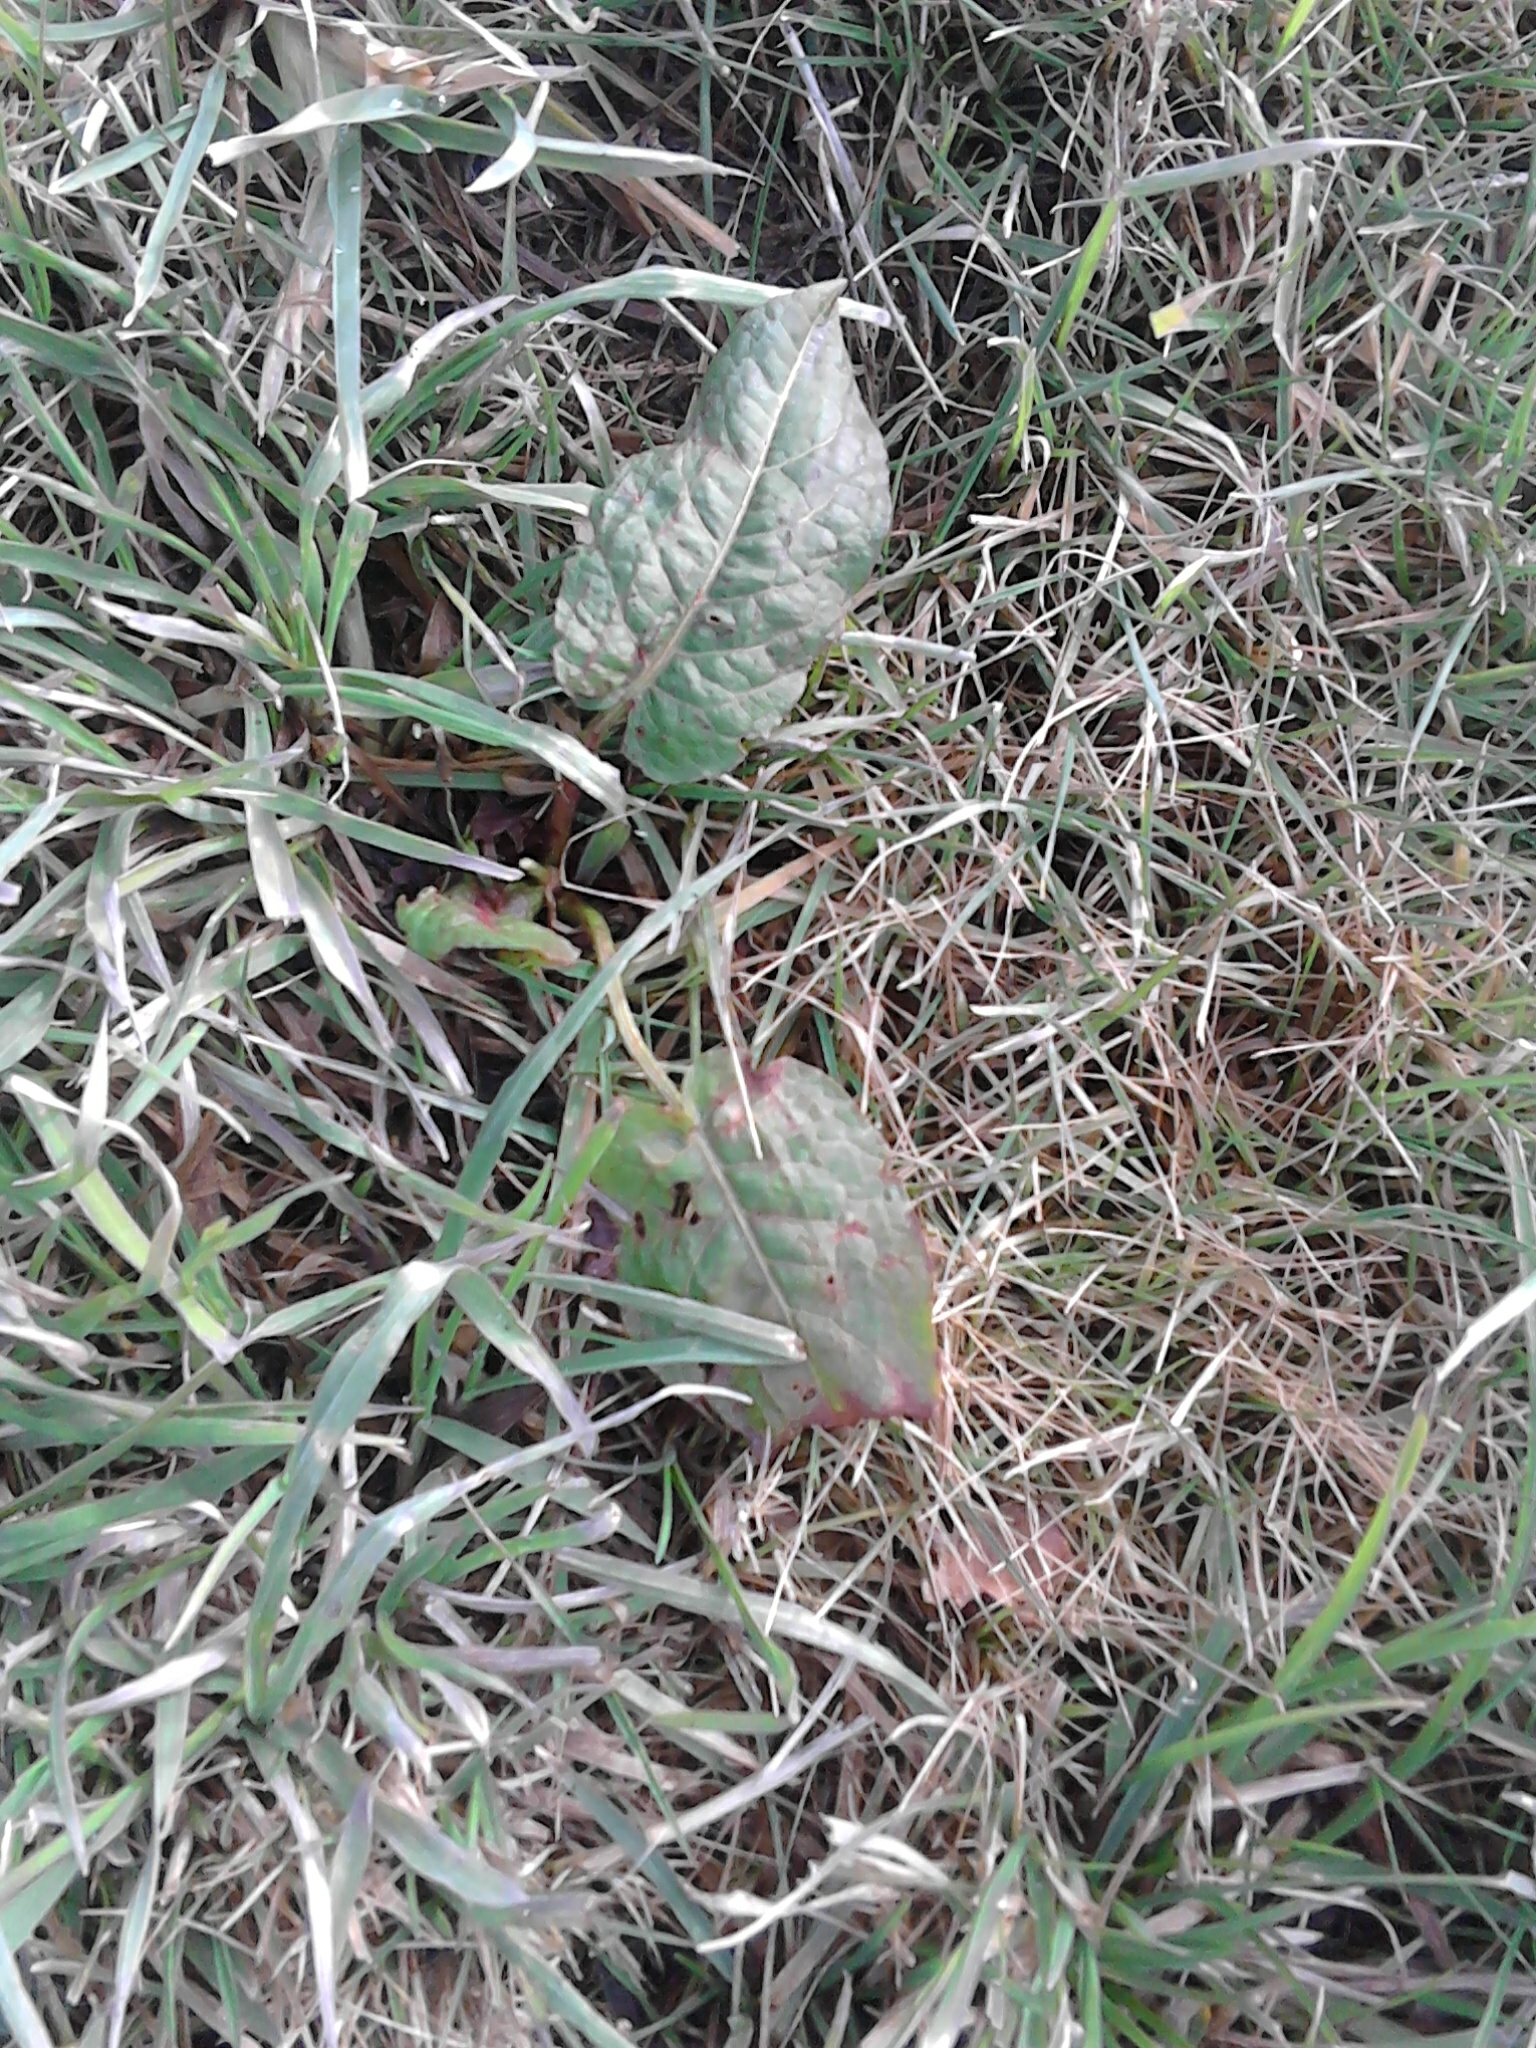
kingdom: Plantae
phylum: Tracheophyta
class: Magnoliopsida
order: Caryophyllales
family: Polygonaceae
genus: Rumex
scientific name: Rumex obtusifolius
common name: Bitter dock
